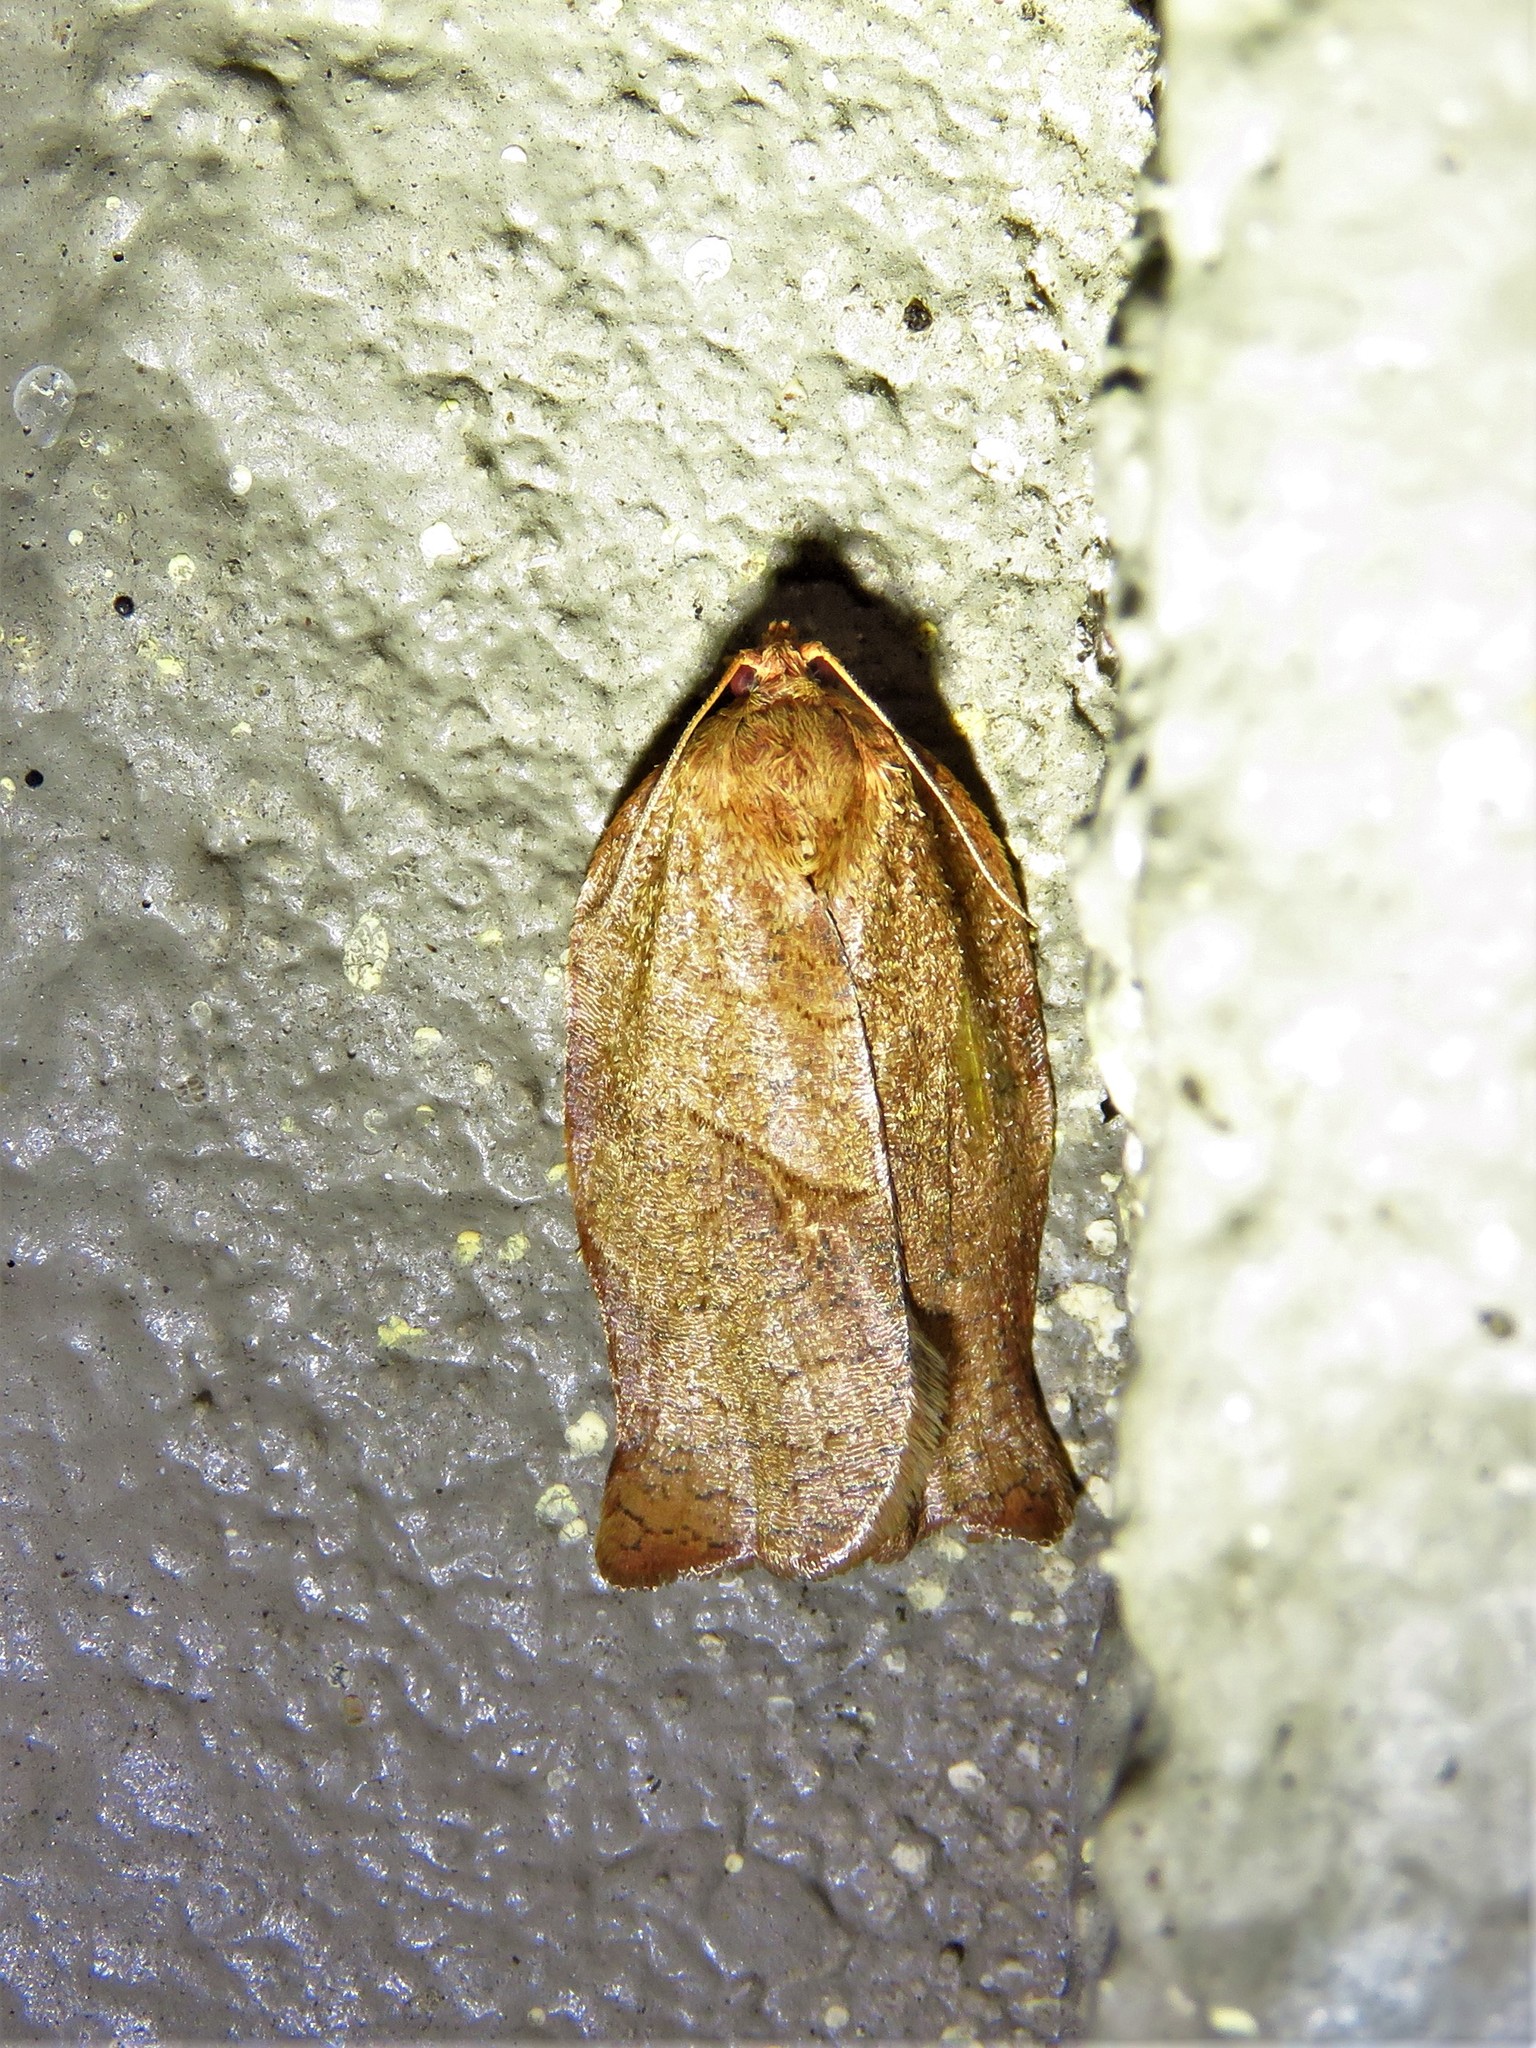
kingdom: Animalia
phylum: Arthropoda
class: Insecta
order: Lepidoptera
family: Tortricidae
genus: Choristoneura
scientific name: Choristoneura rosaceana
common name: Oblique-banded leafroller moth
